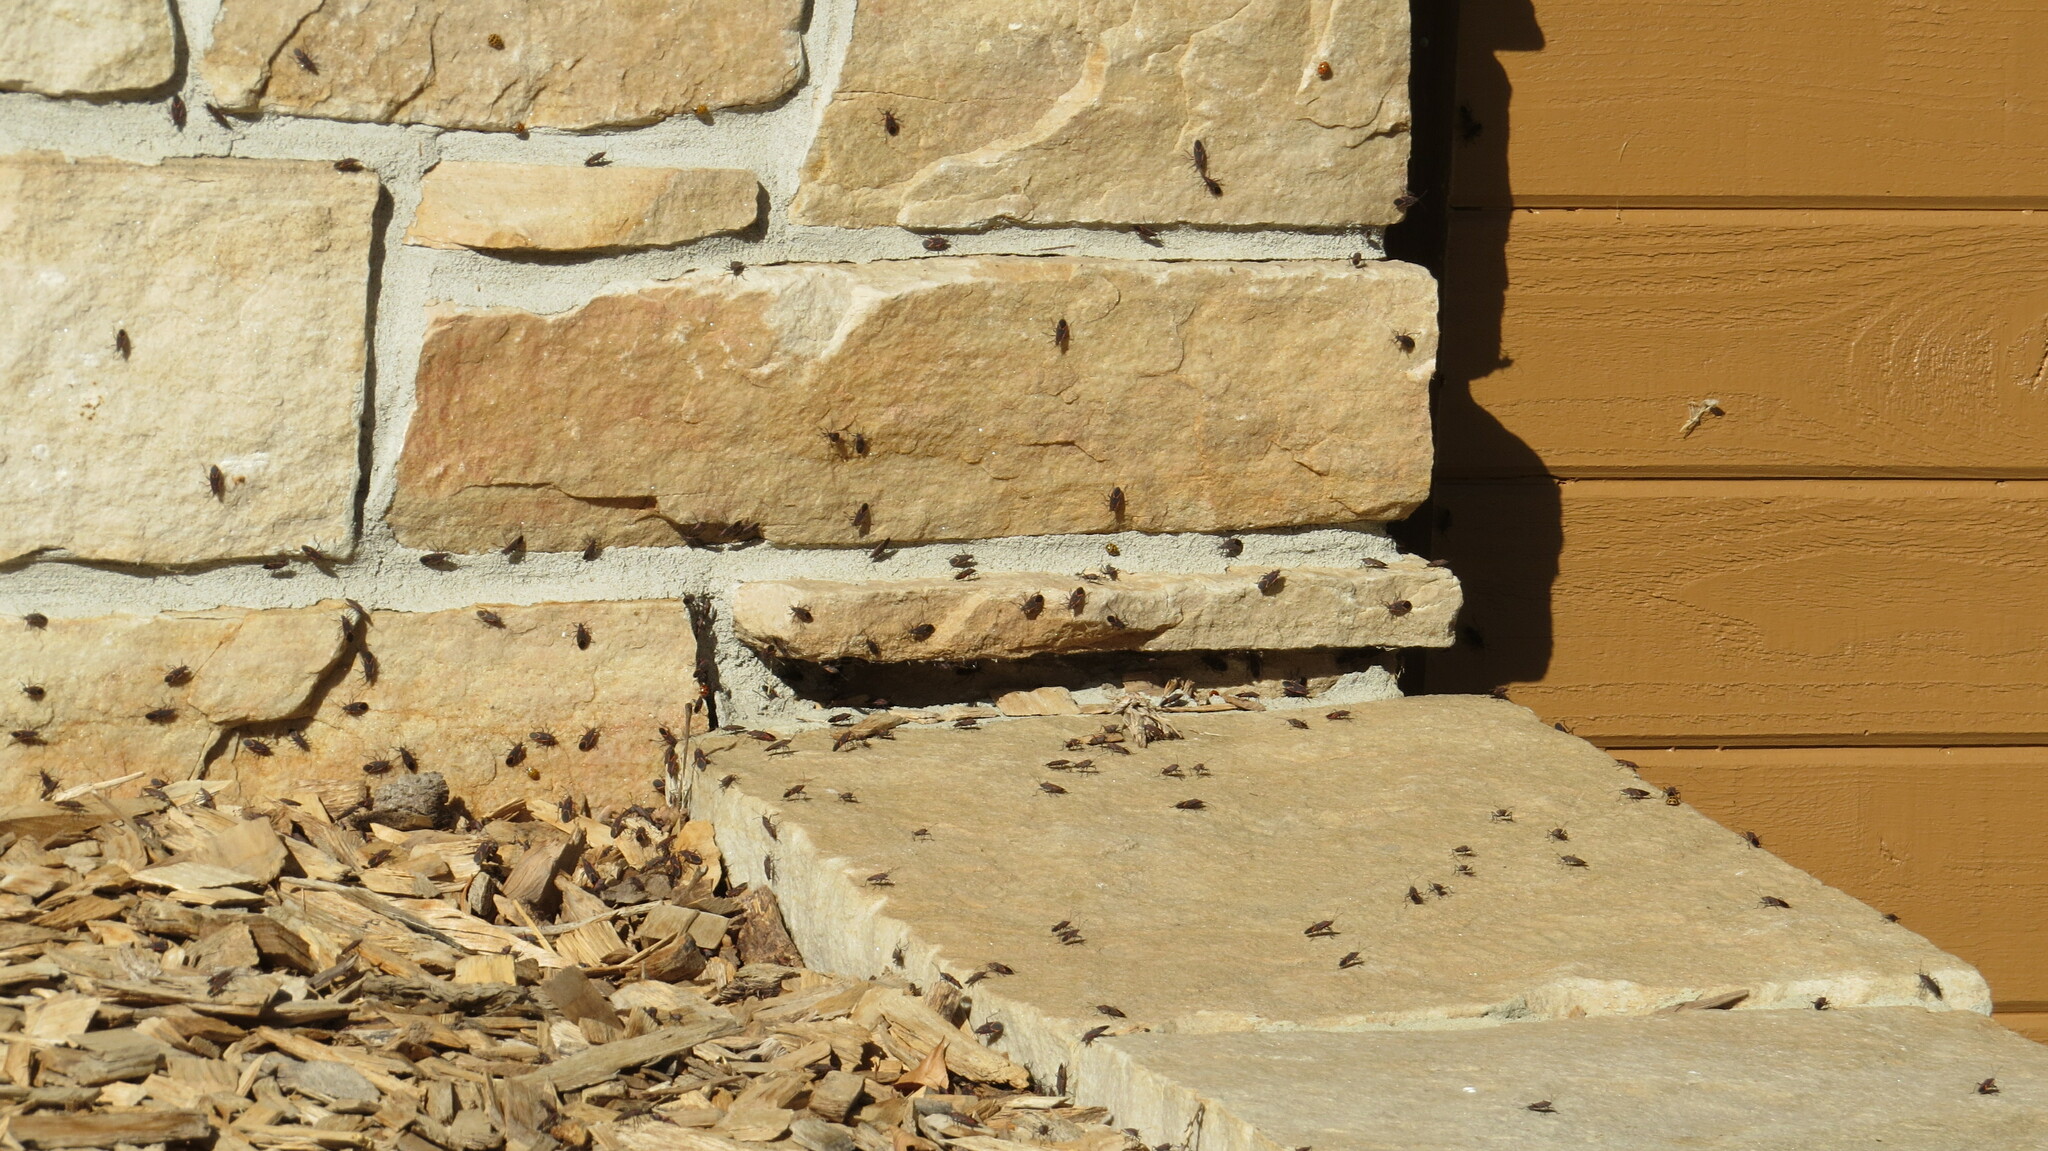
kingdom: Animalia
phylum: Arthropoda
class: Insecta
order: Hemiptera
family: Rhopalidae
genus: Boisea
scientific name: Boisea trivittata
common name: Boxelder bug
